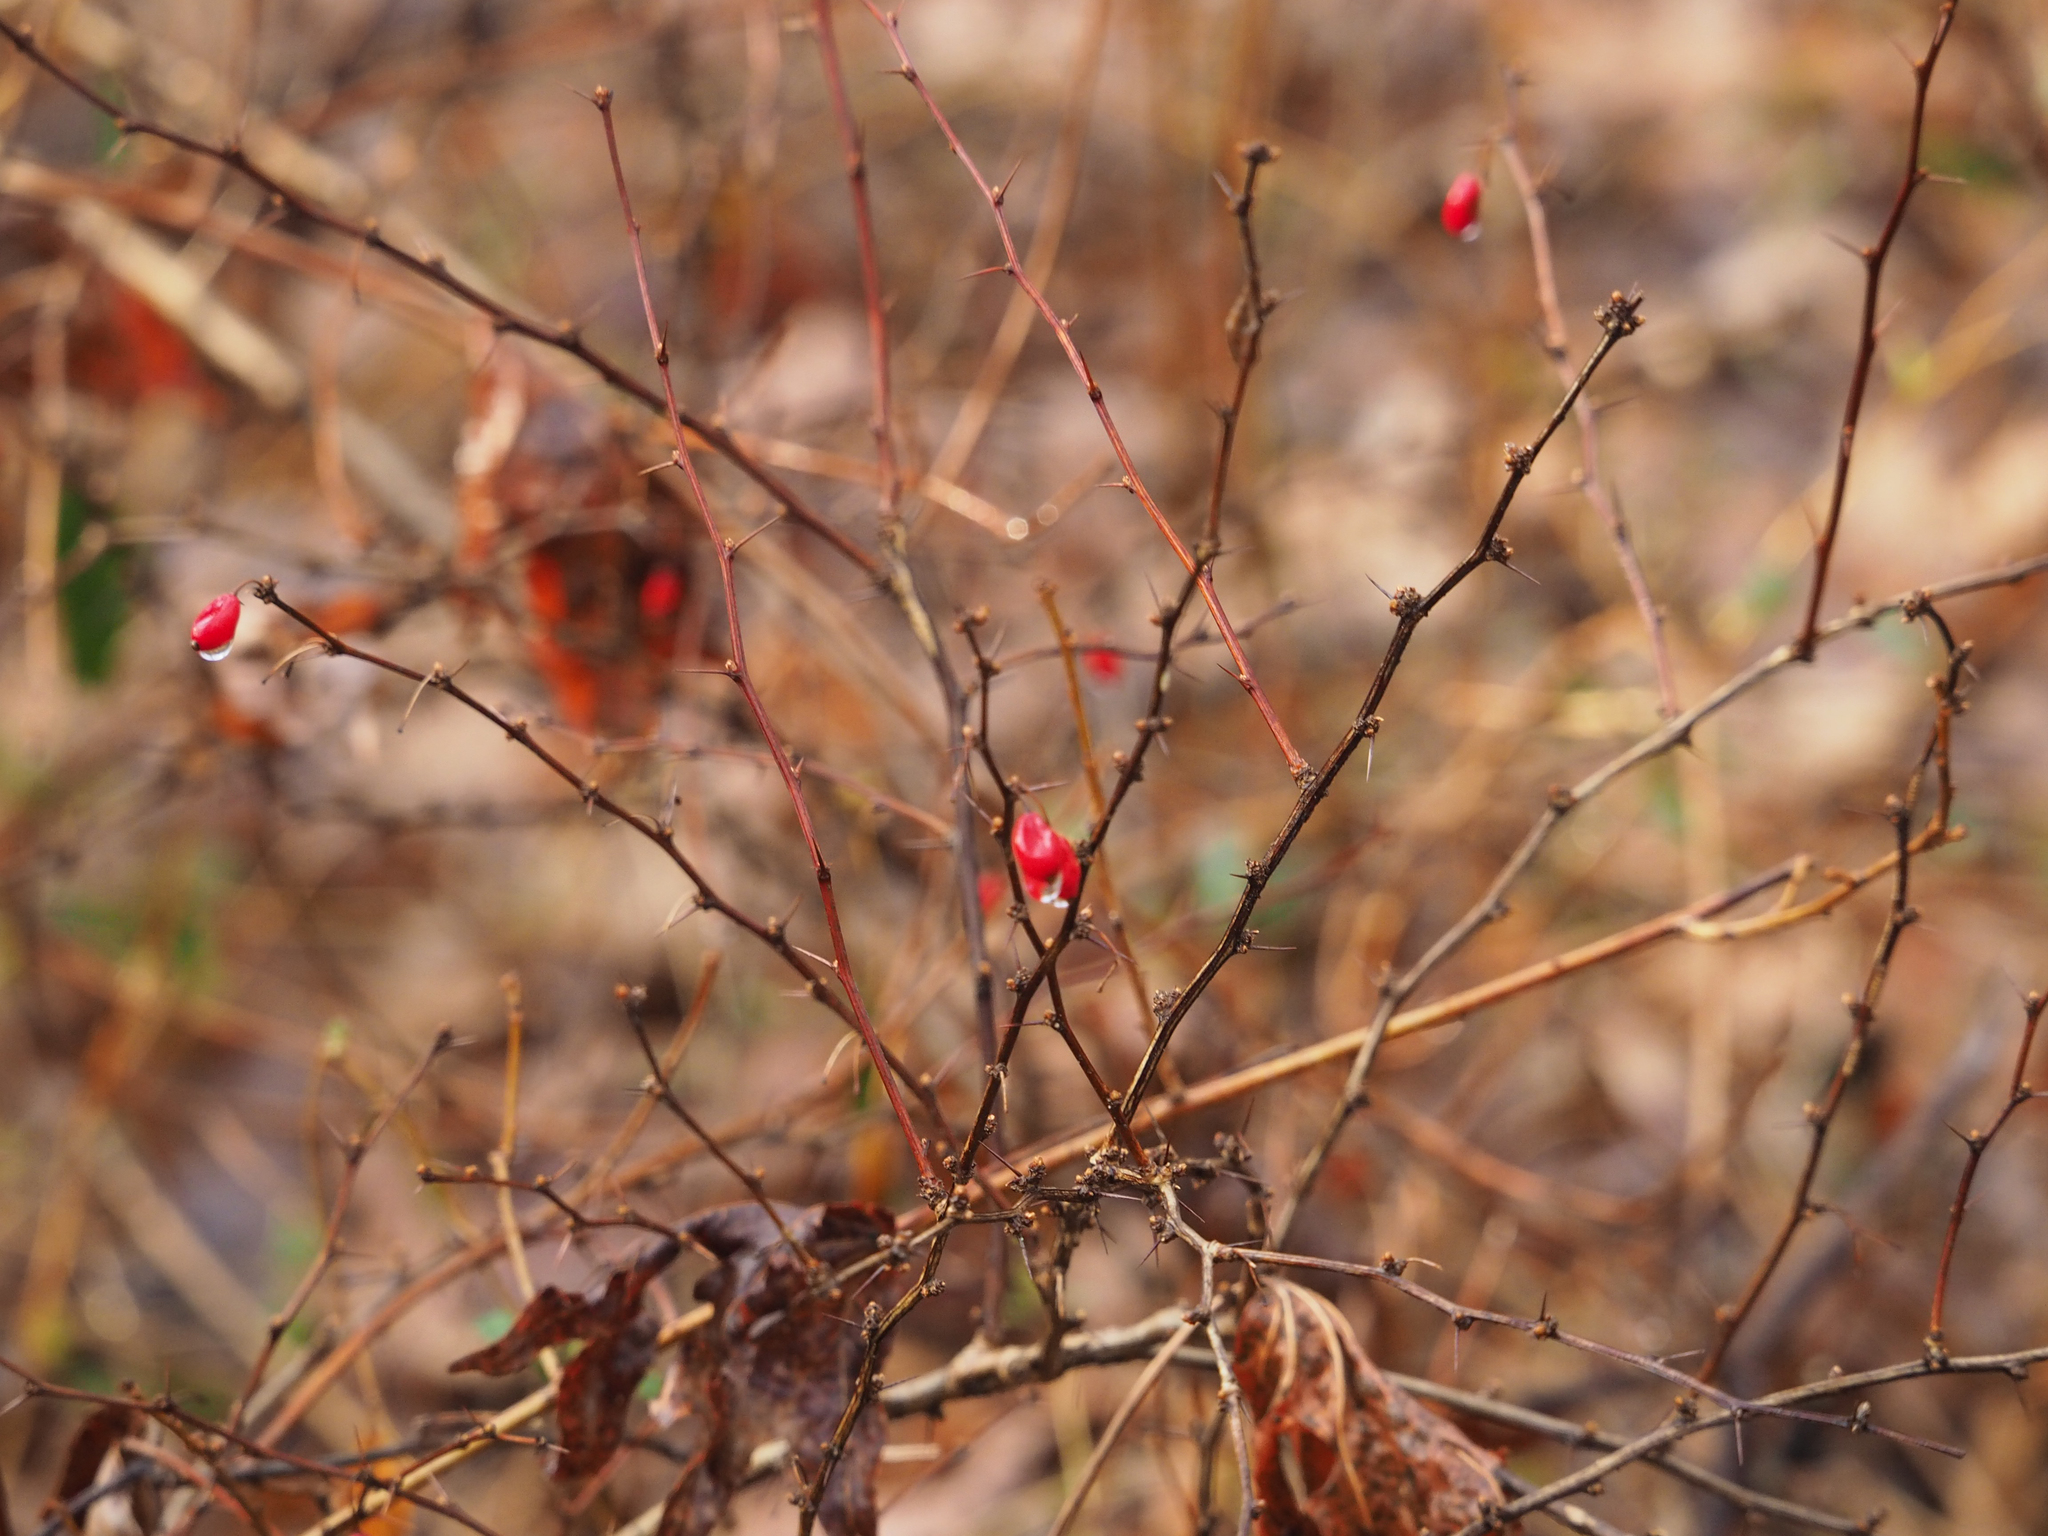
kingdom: Plantae
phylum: Tracheophyta
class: Magnoliopsida
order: Ranunculales
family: Berberidaceae
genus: Berberis
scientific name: Berberis thunbergii
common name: Japanese barberry
